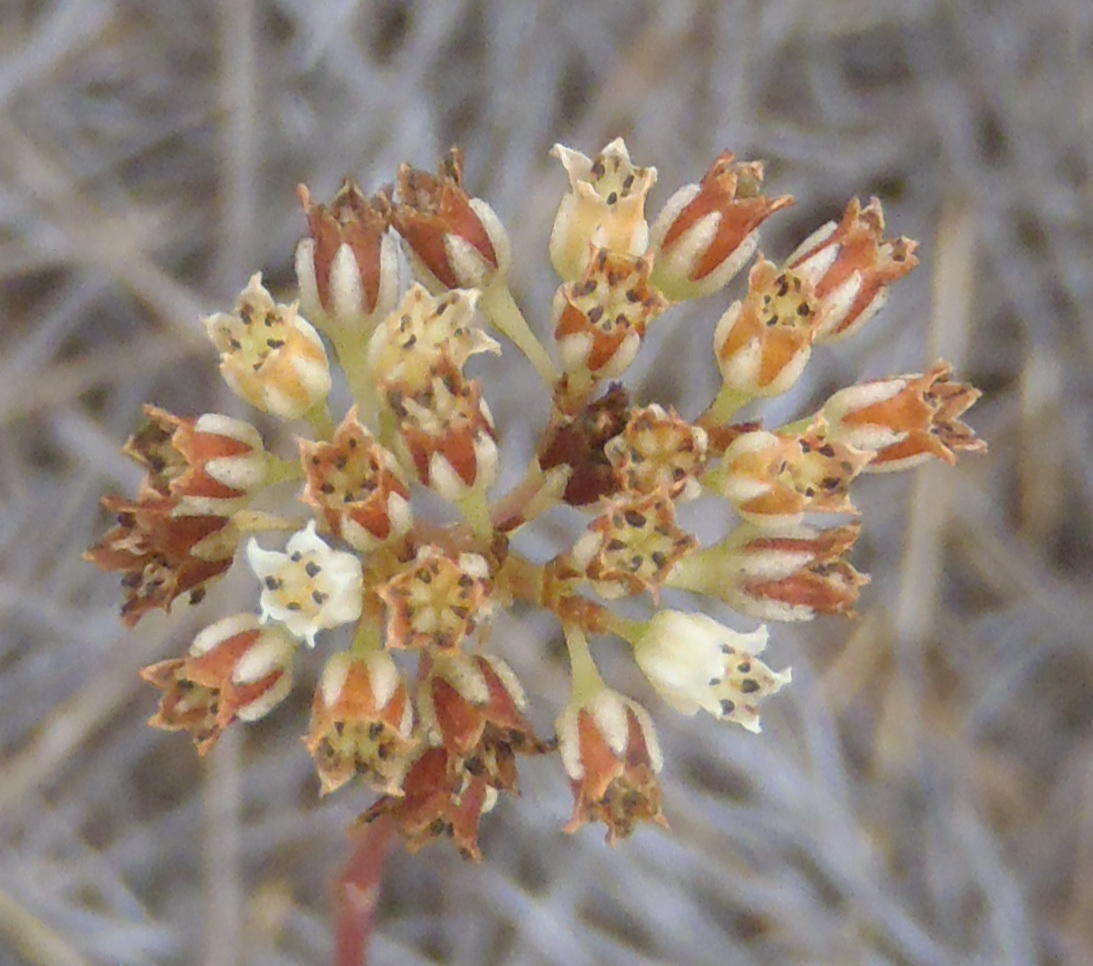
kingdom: Plantae
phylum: Tracheophyta
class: Magnoliopsida
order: Saxifragales
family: Crassulaceae
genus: Crassula
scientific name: Crassula biplanata
